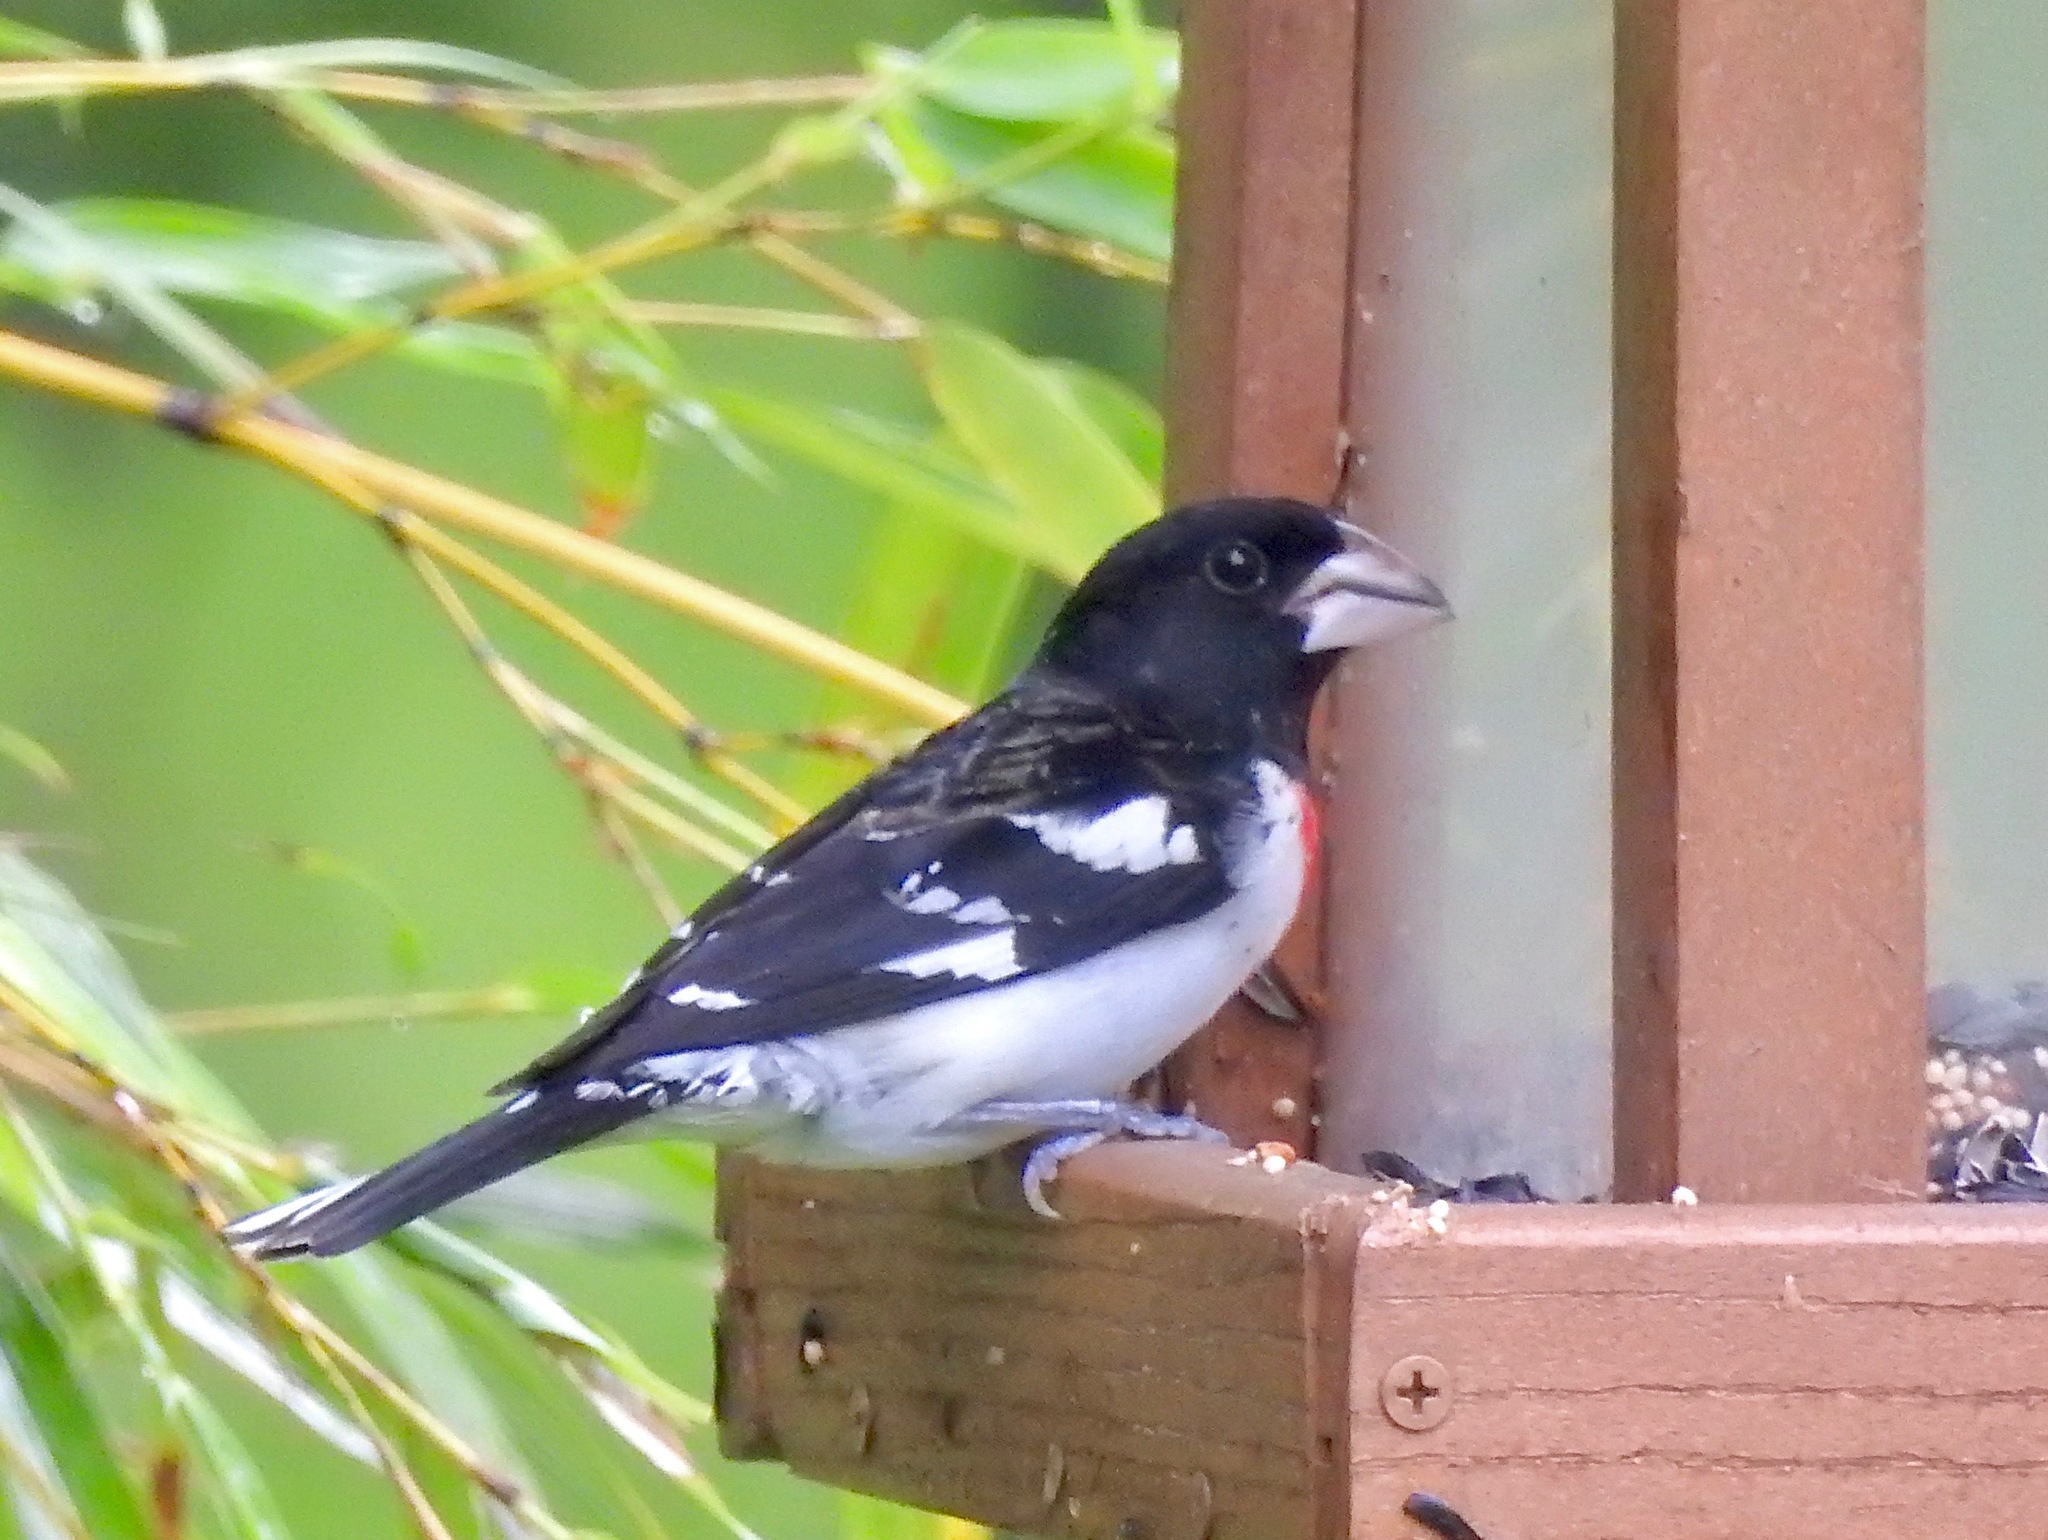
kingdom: Animalia
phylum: Chordata
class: Aves
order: Passeriformes
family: Cardinalidae
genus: Pheucticus
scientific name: Pheucticus ludovicianus
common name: Rose-breasted grosbeak
